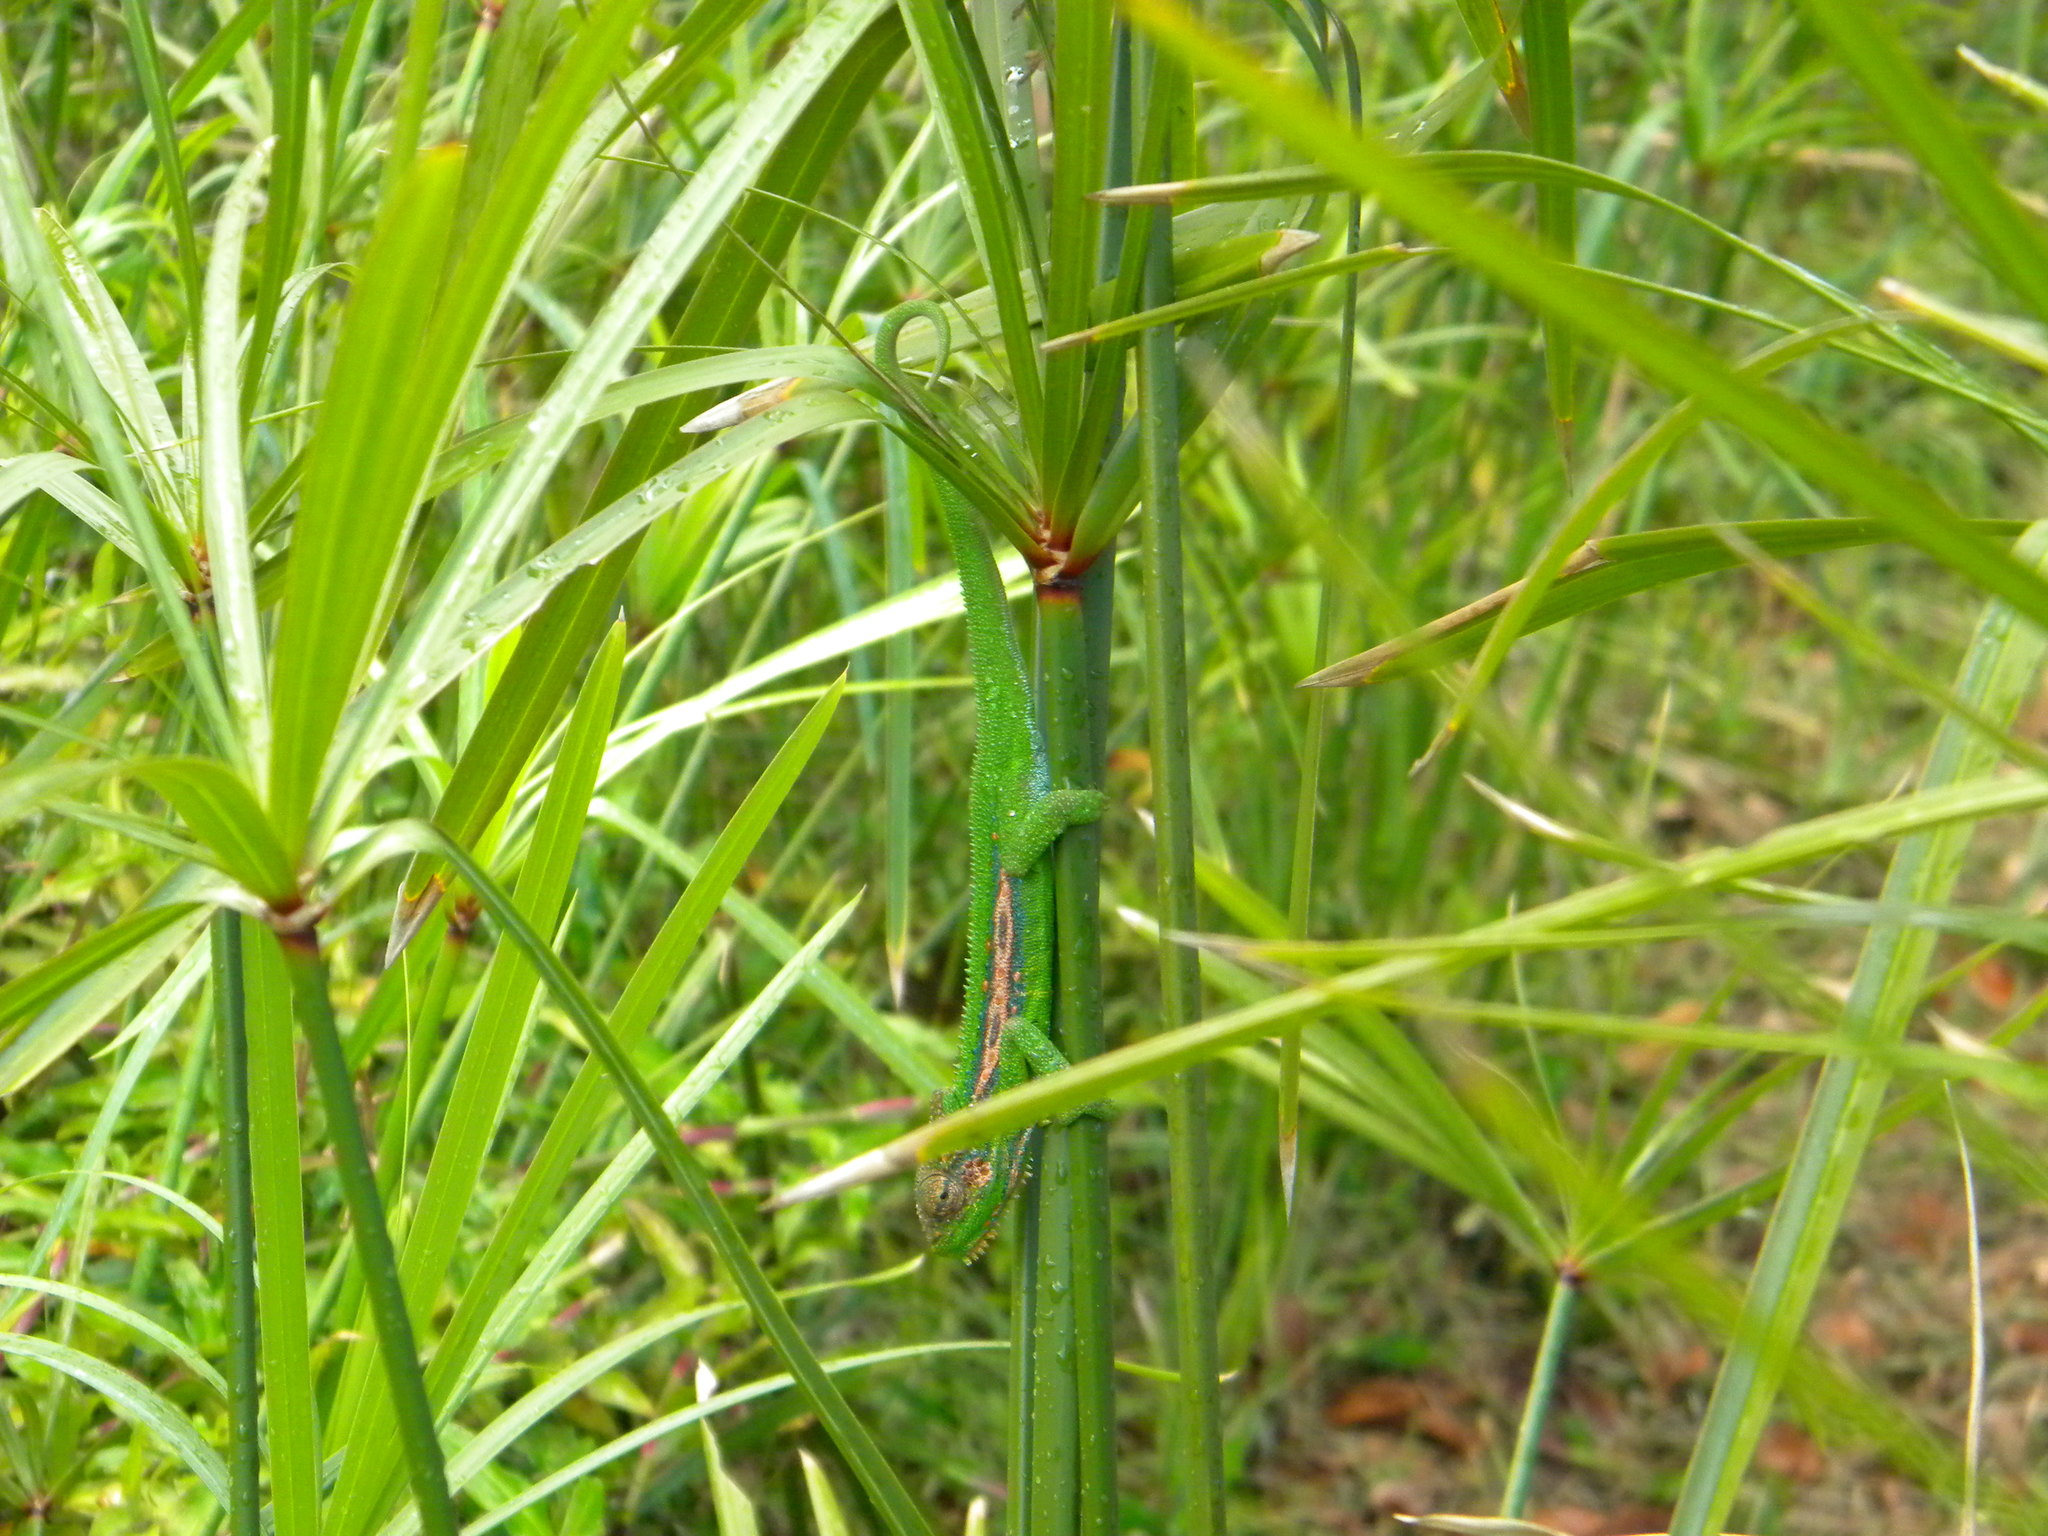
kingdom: Animalia
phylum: Chordata
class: Squamata
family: Chamaeleonidae
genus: Bradypodion
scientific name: Bradypodion pumilum
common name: Cape dwarf chameleon
